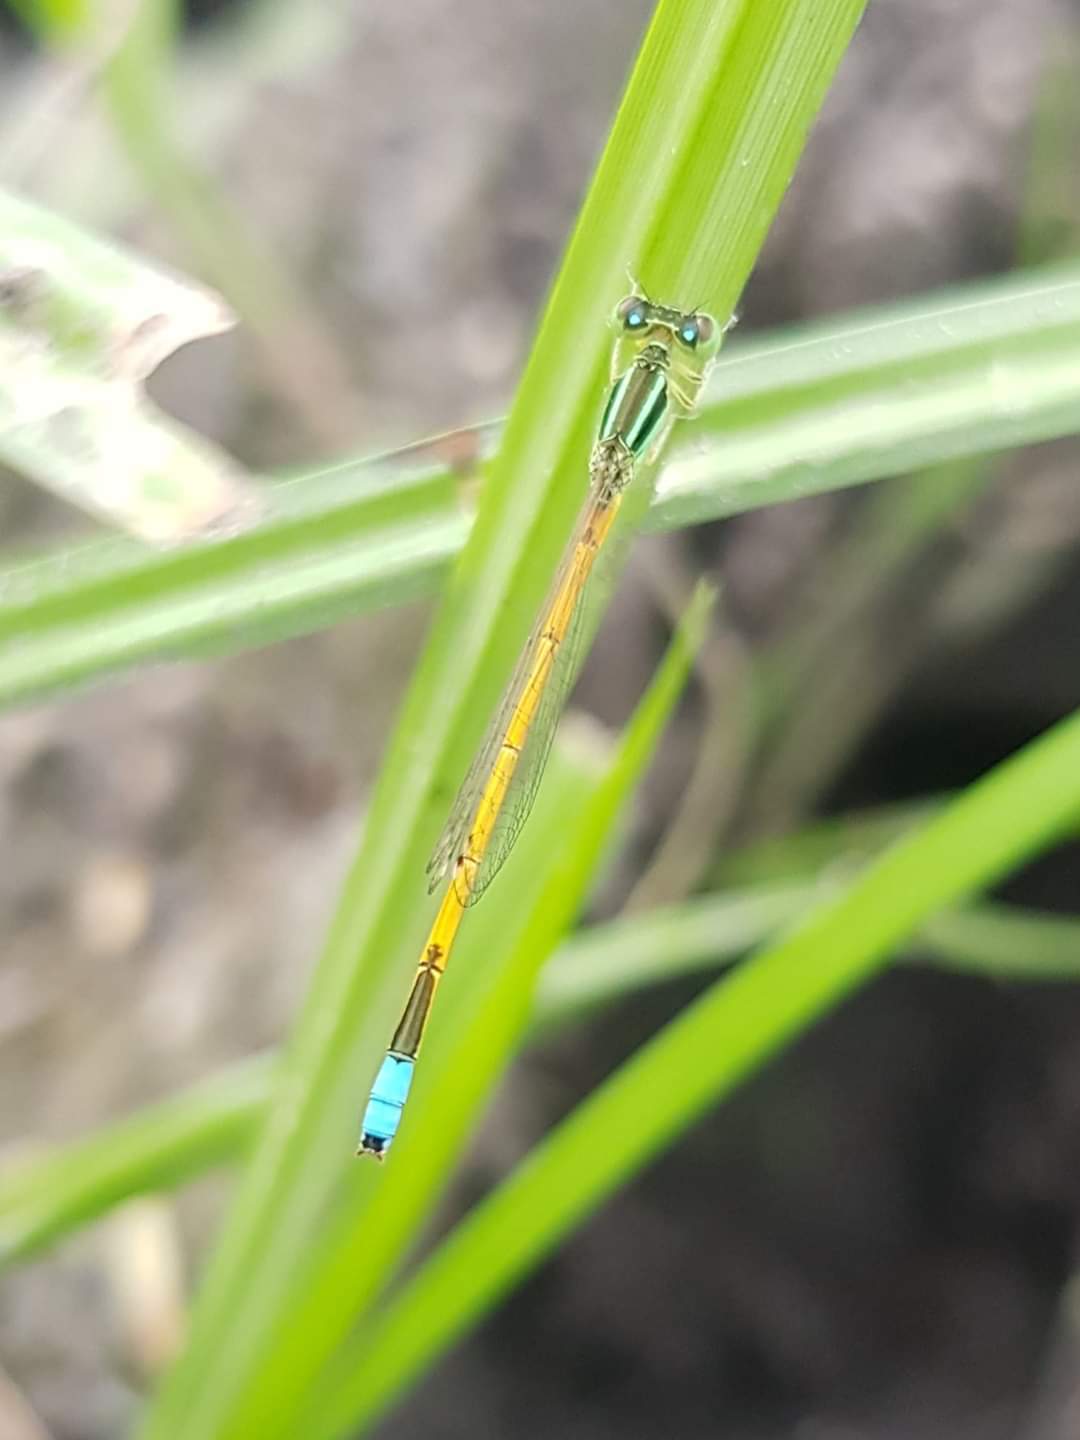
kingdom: Animalia
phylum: Arthropoda
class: Insecta
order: Odonata
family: Coenagrionidae
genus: Ischnura
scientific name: Ischnura rubilio
